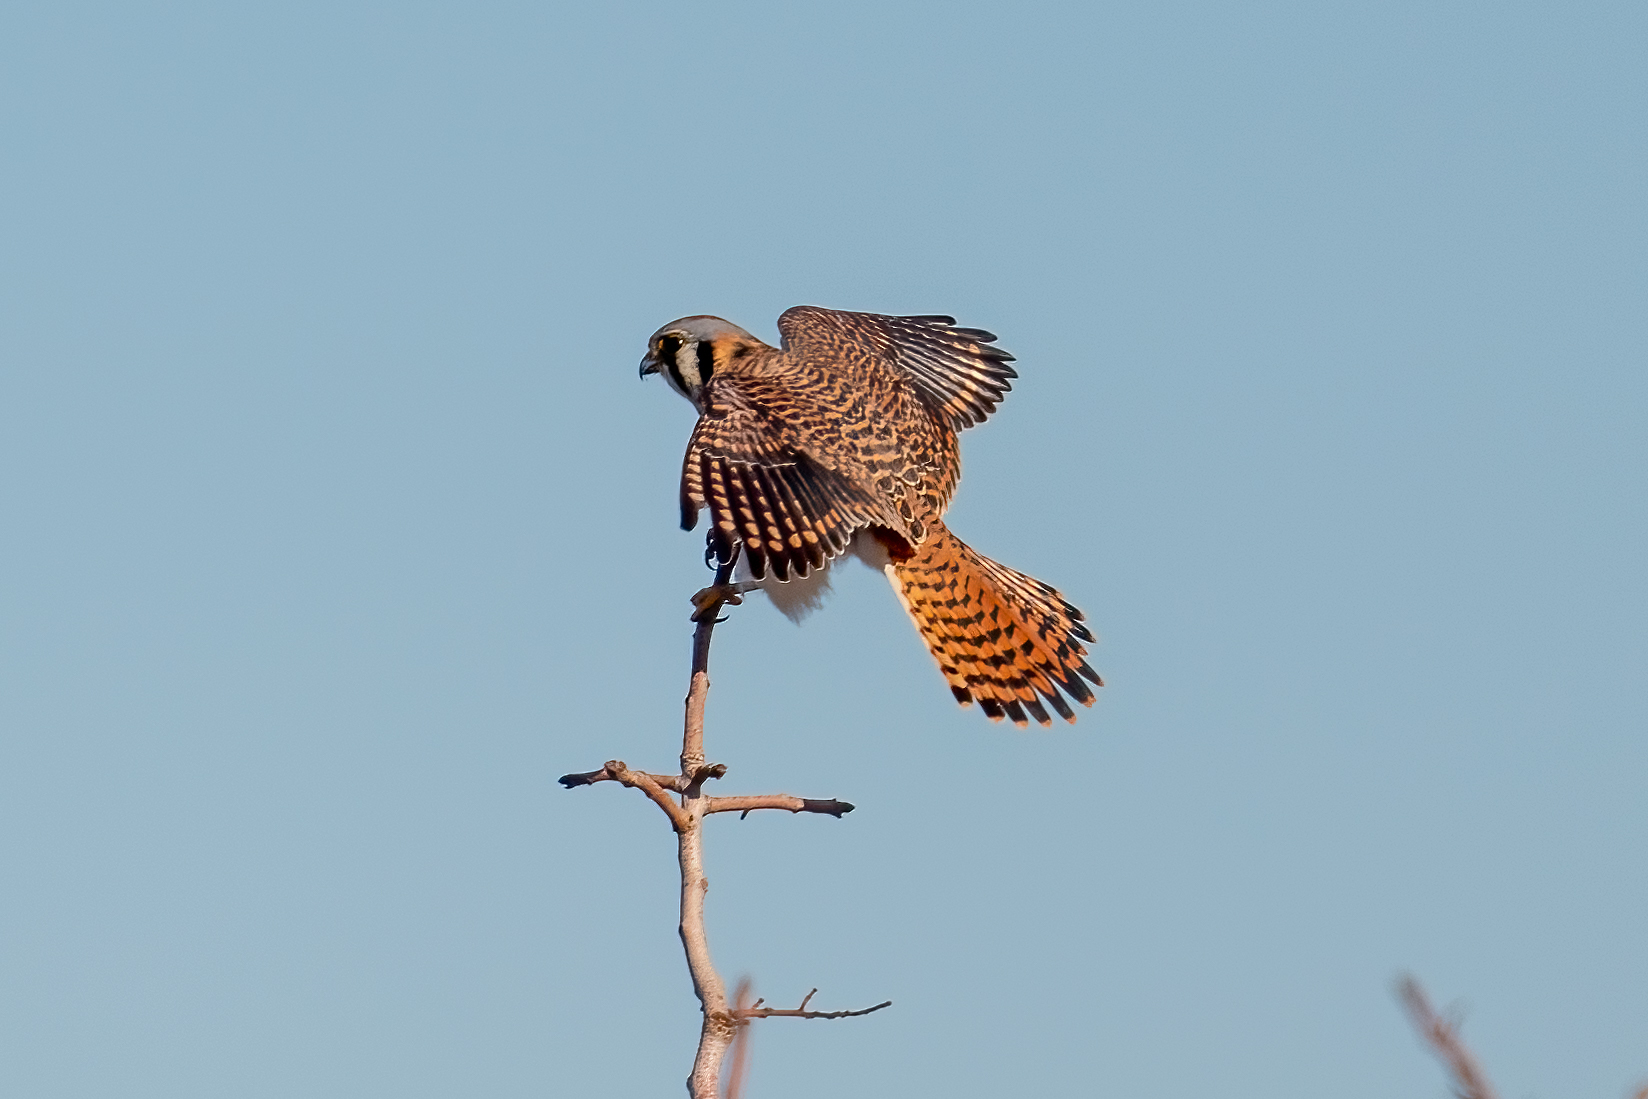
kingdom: Animalia
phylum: Chordata
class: Aves
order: Falconiformes
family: Falconidae
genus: Falco
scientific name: Falco sparverius
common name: American kestrel
